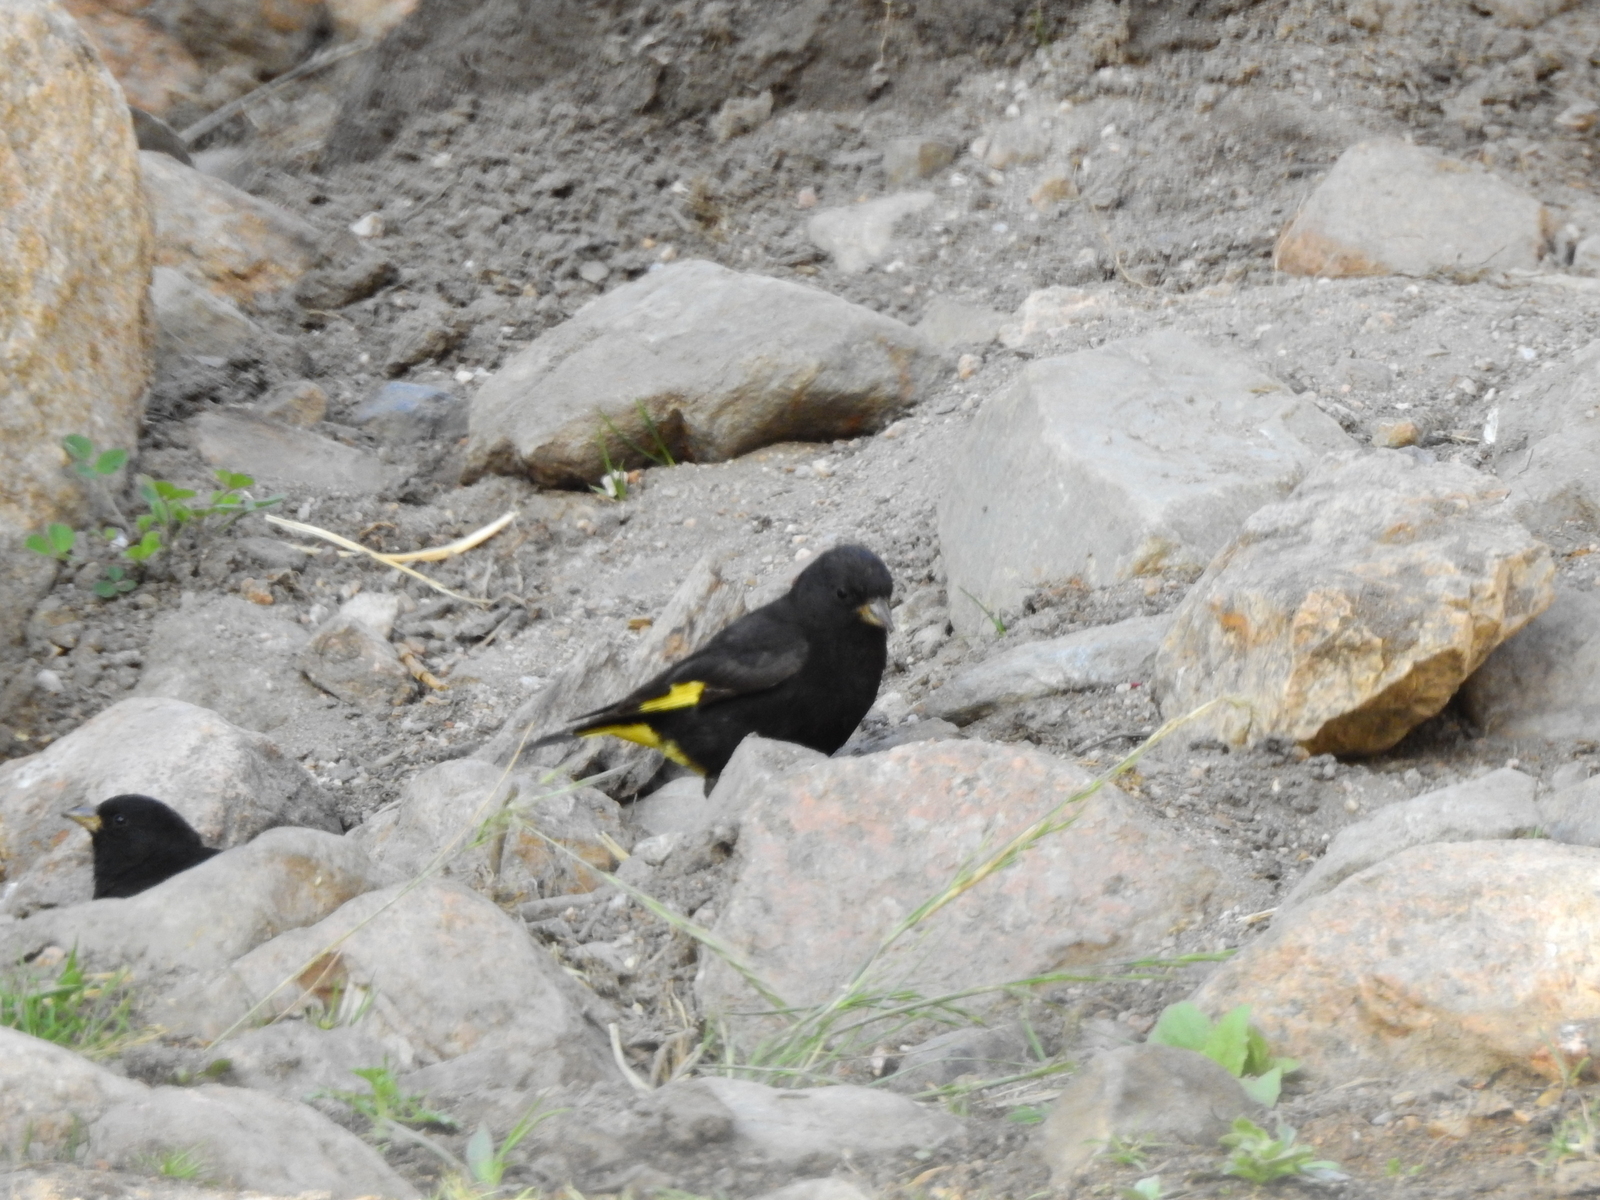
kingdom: Animalia
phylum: Chordata
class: Aves
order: Passeriformes
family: Fringillidae
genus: Spinus
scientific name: Spinus atratus
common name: Black siskin
